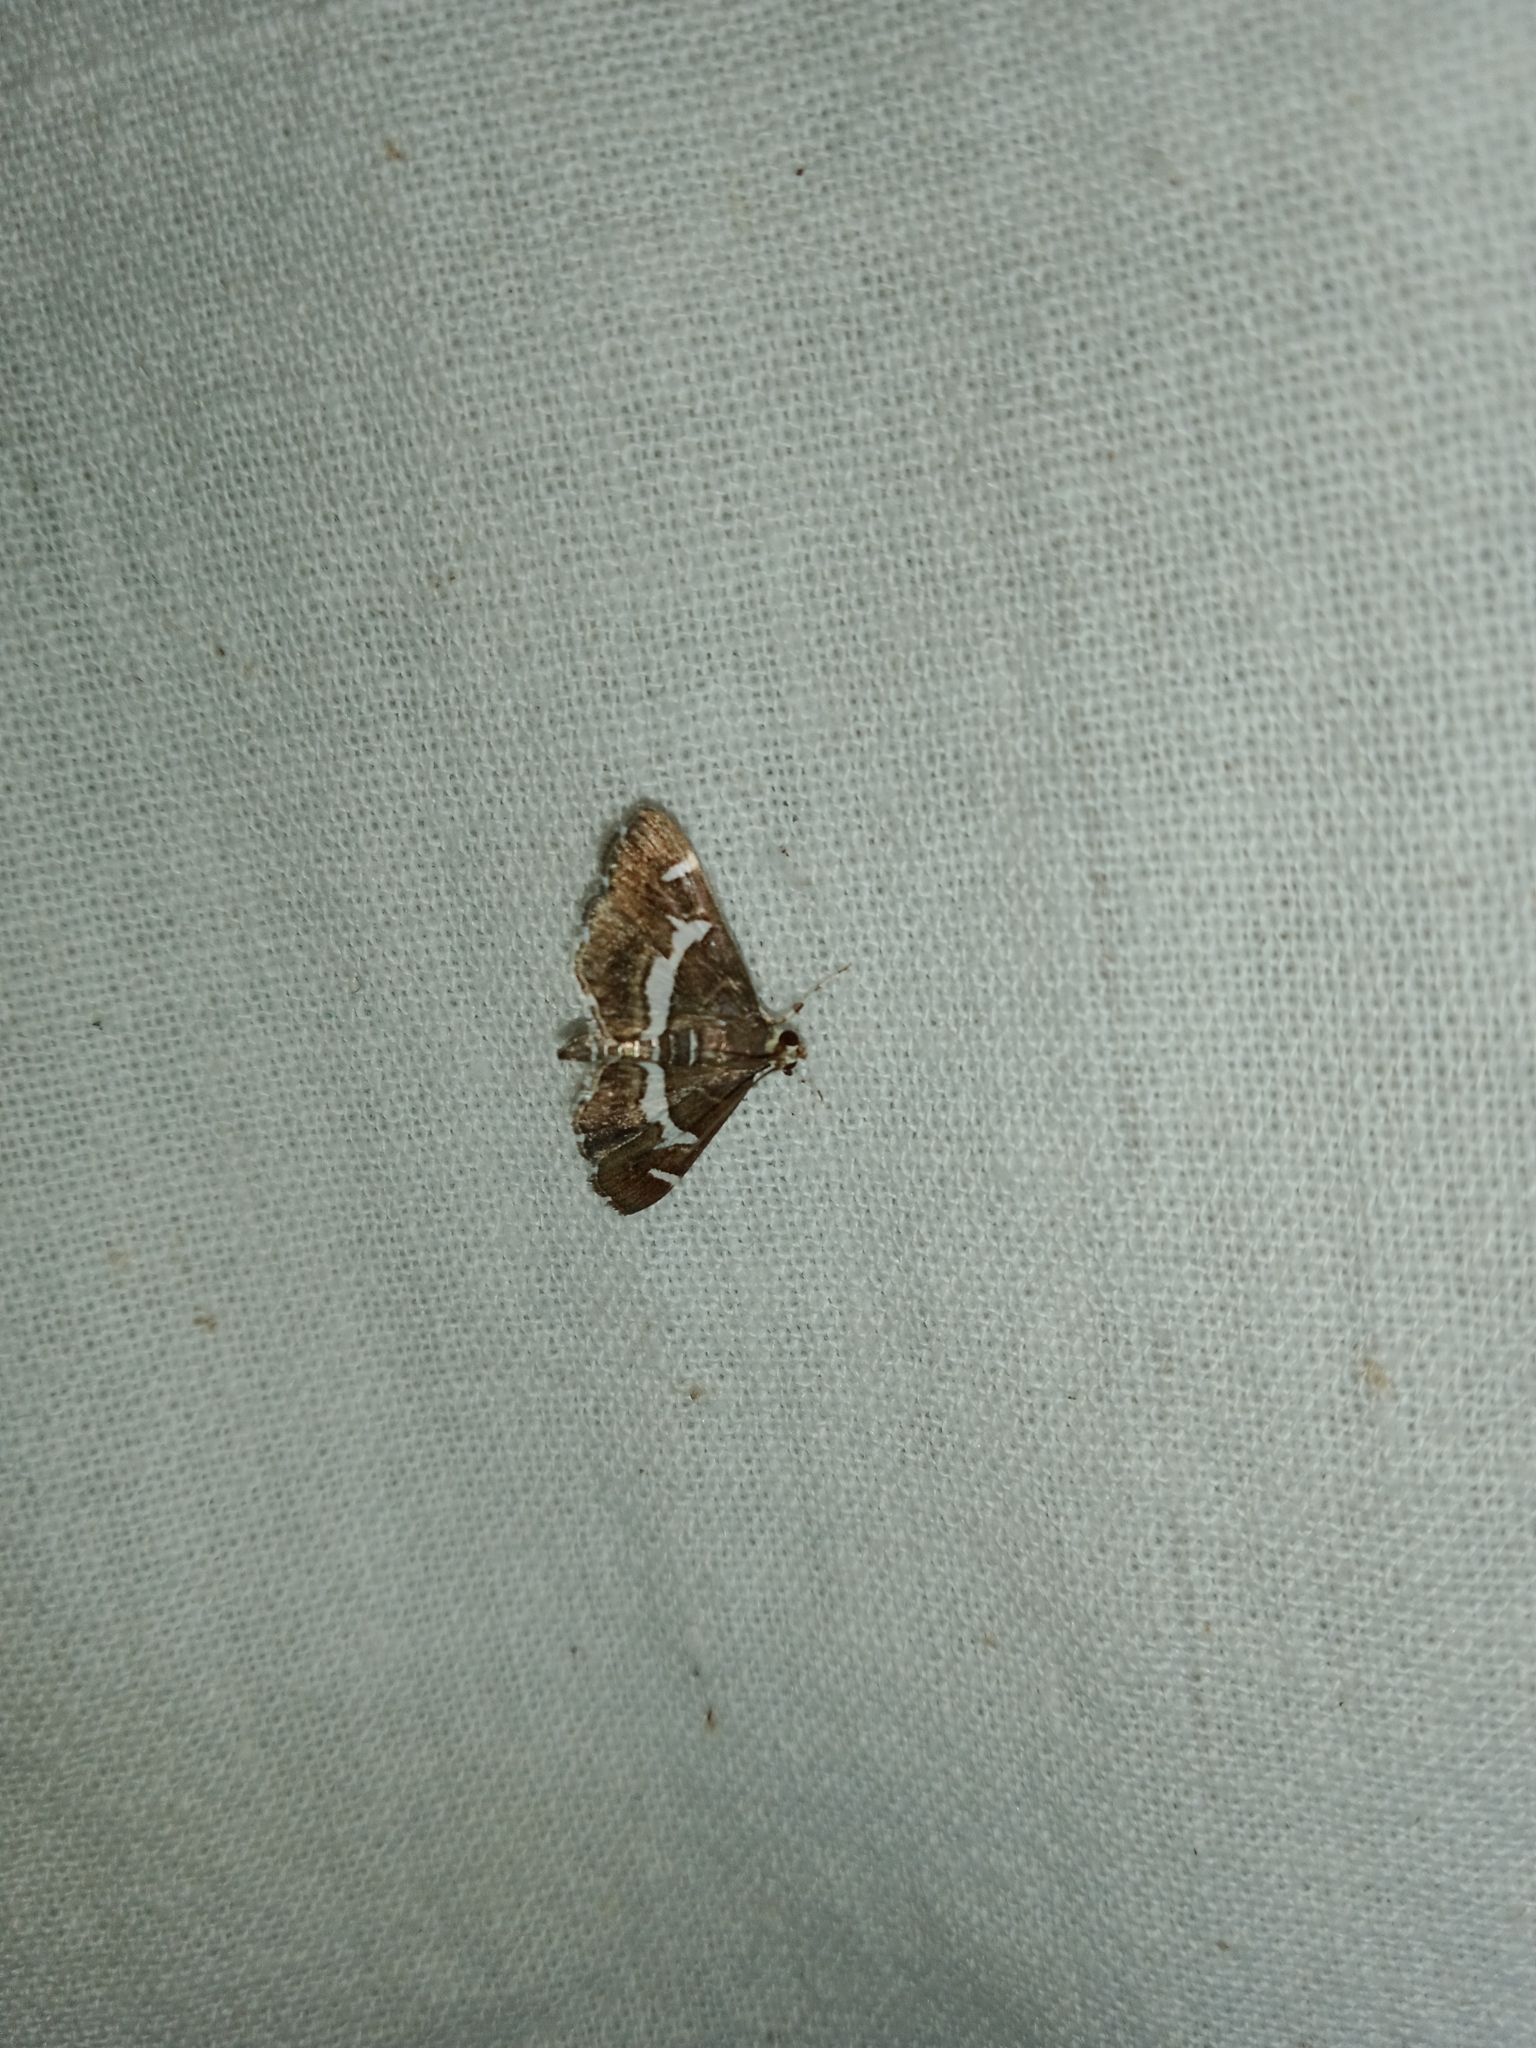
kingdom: Animalia
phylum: Arthropoda
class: Insecta
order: Lepidoptera
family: Crambidae
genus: Spoladea
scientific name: Spoladea recurvalis
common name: Beet webworm moth
